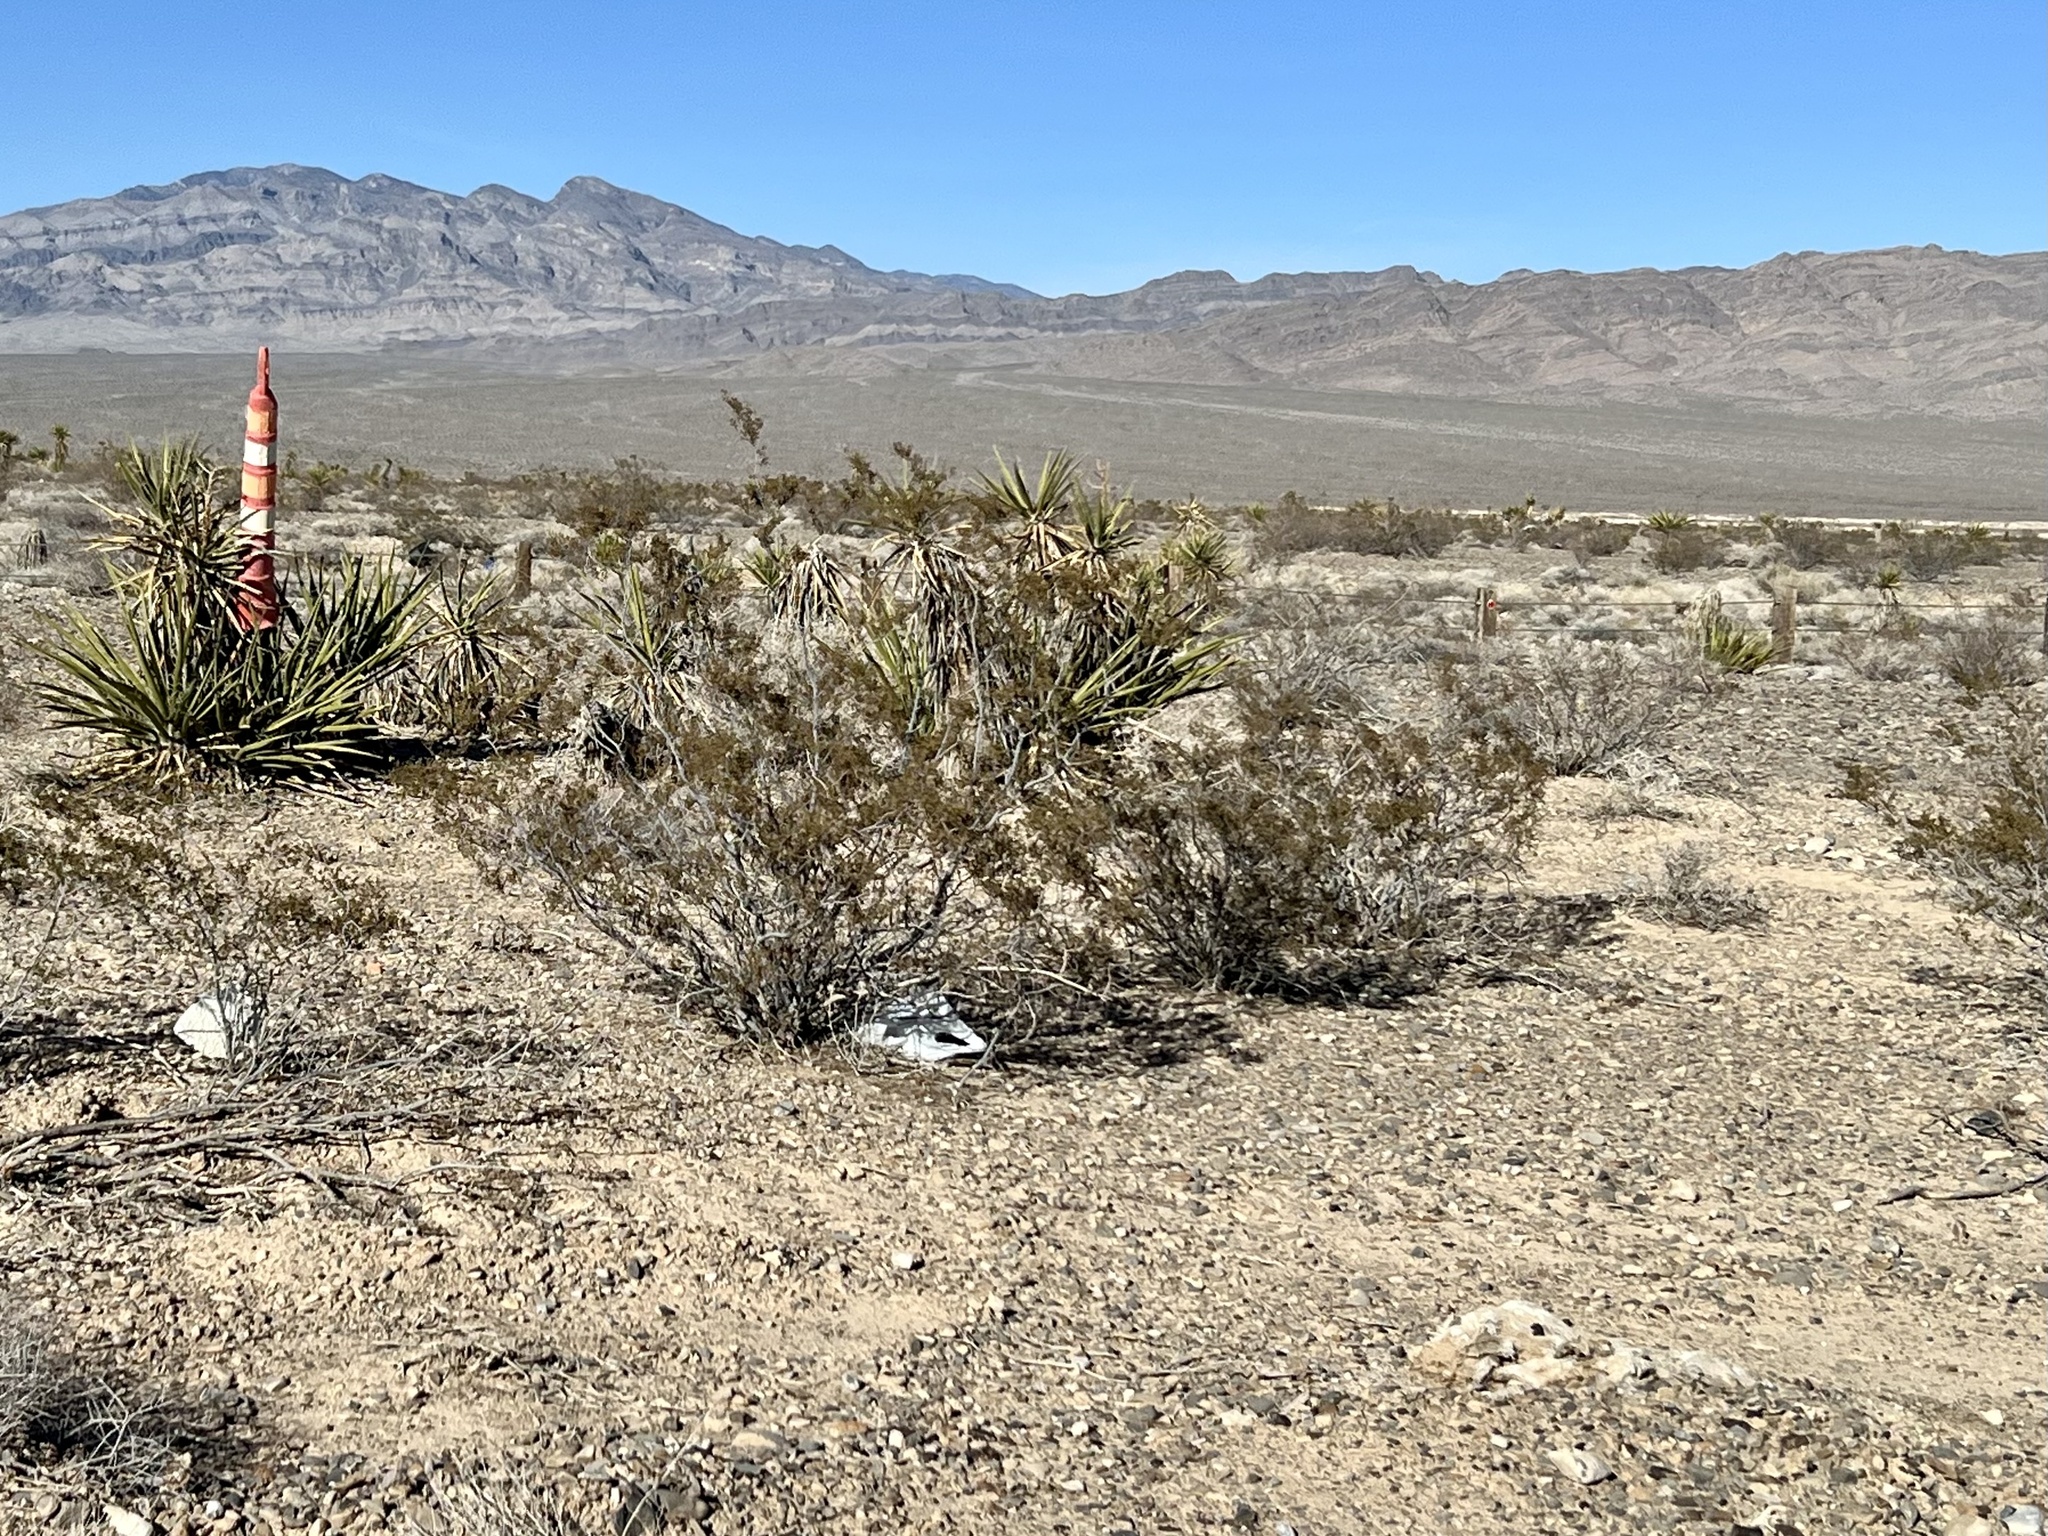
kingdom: Plantae
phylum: Tracheophyta
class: Magnoliopsida
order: Zygophyllales
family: Zygophyllaceae
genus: Larrea
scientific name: Larrea tridentata
